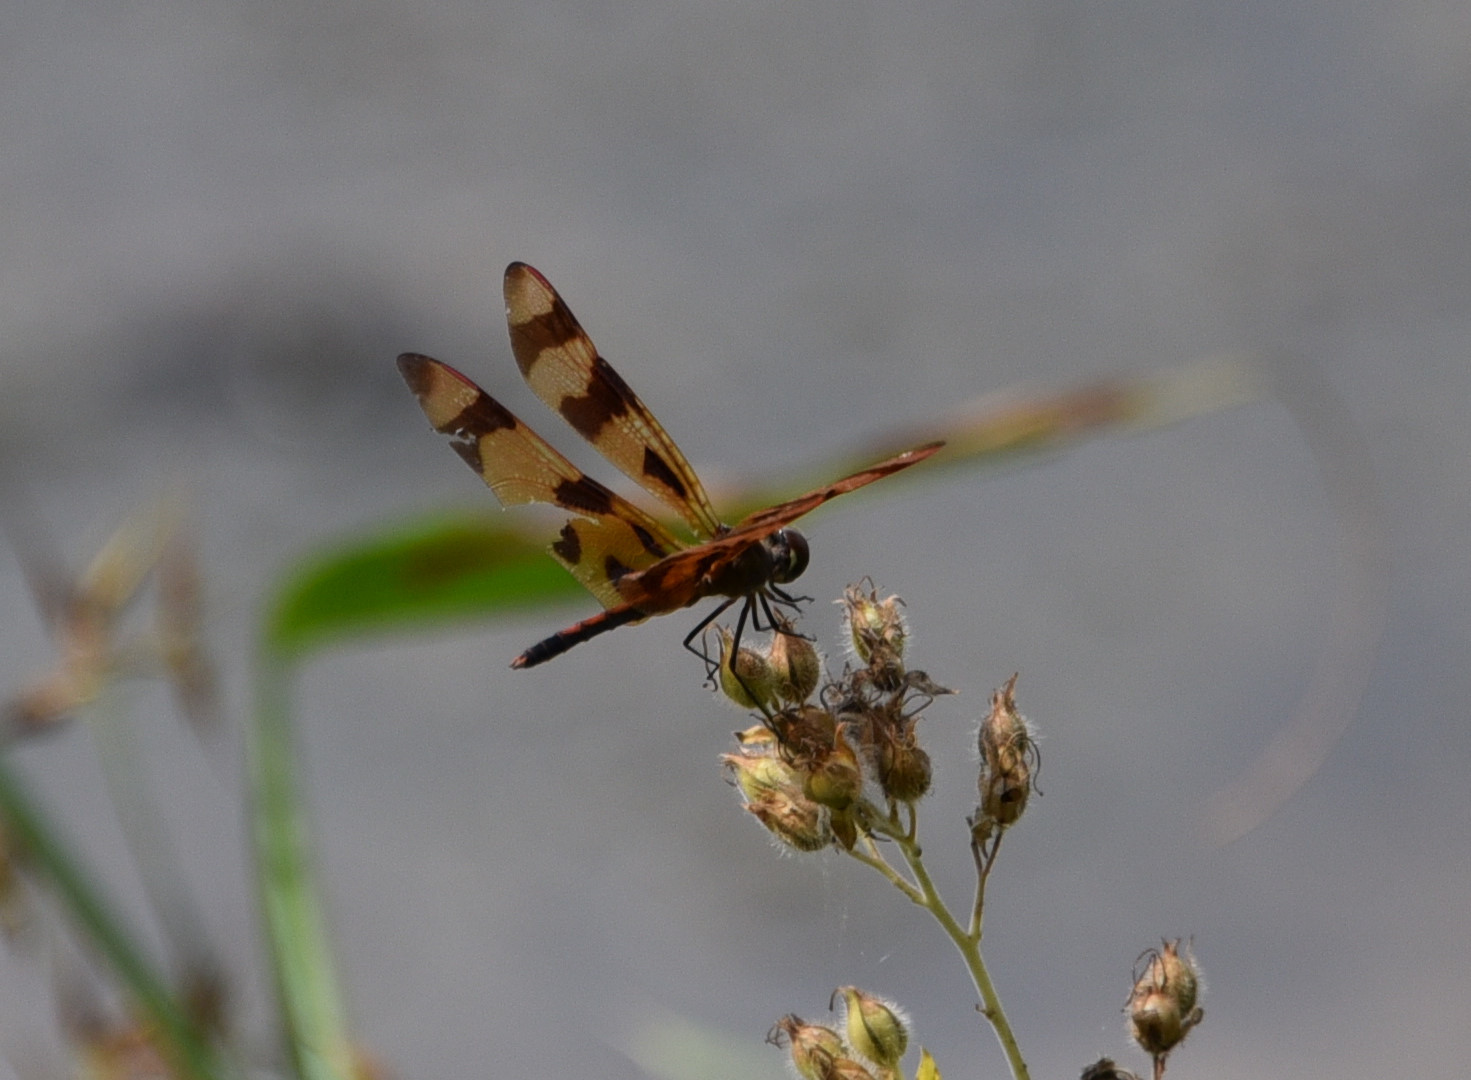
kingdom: Animalia
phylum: Arthropoda
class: Insecta
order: Odonata
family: Libellulidae
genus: Celithemis
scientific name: Celithemis eponina
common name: Halloween pennant
